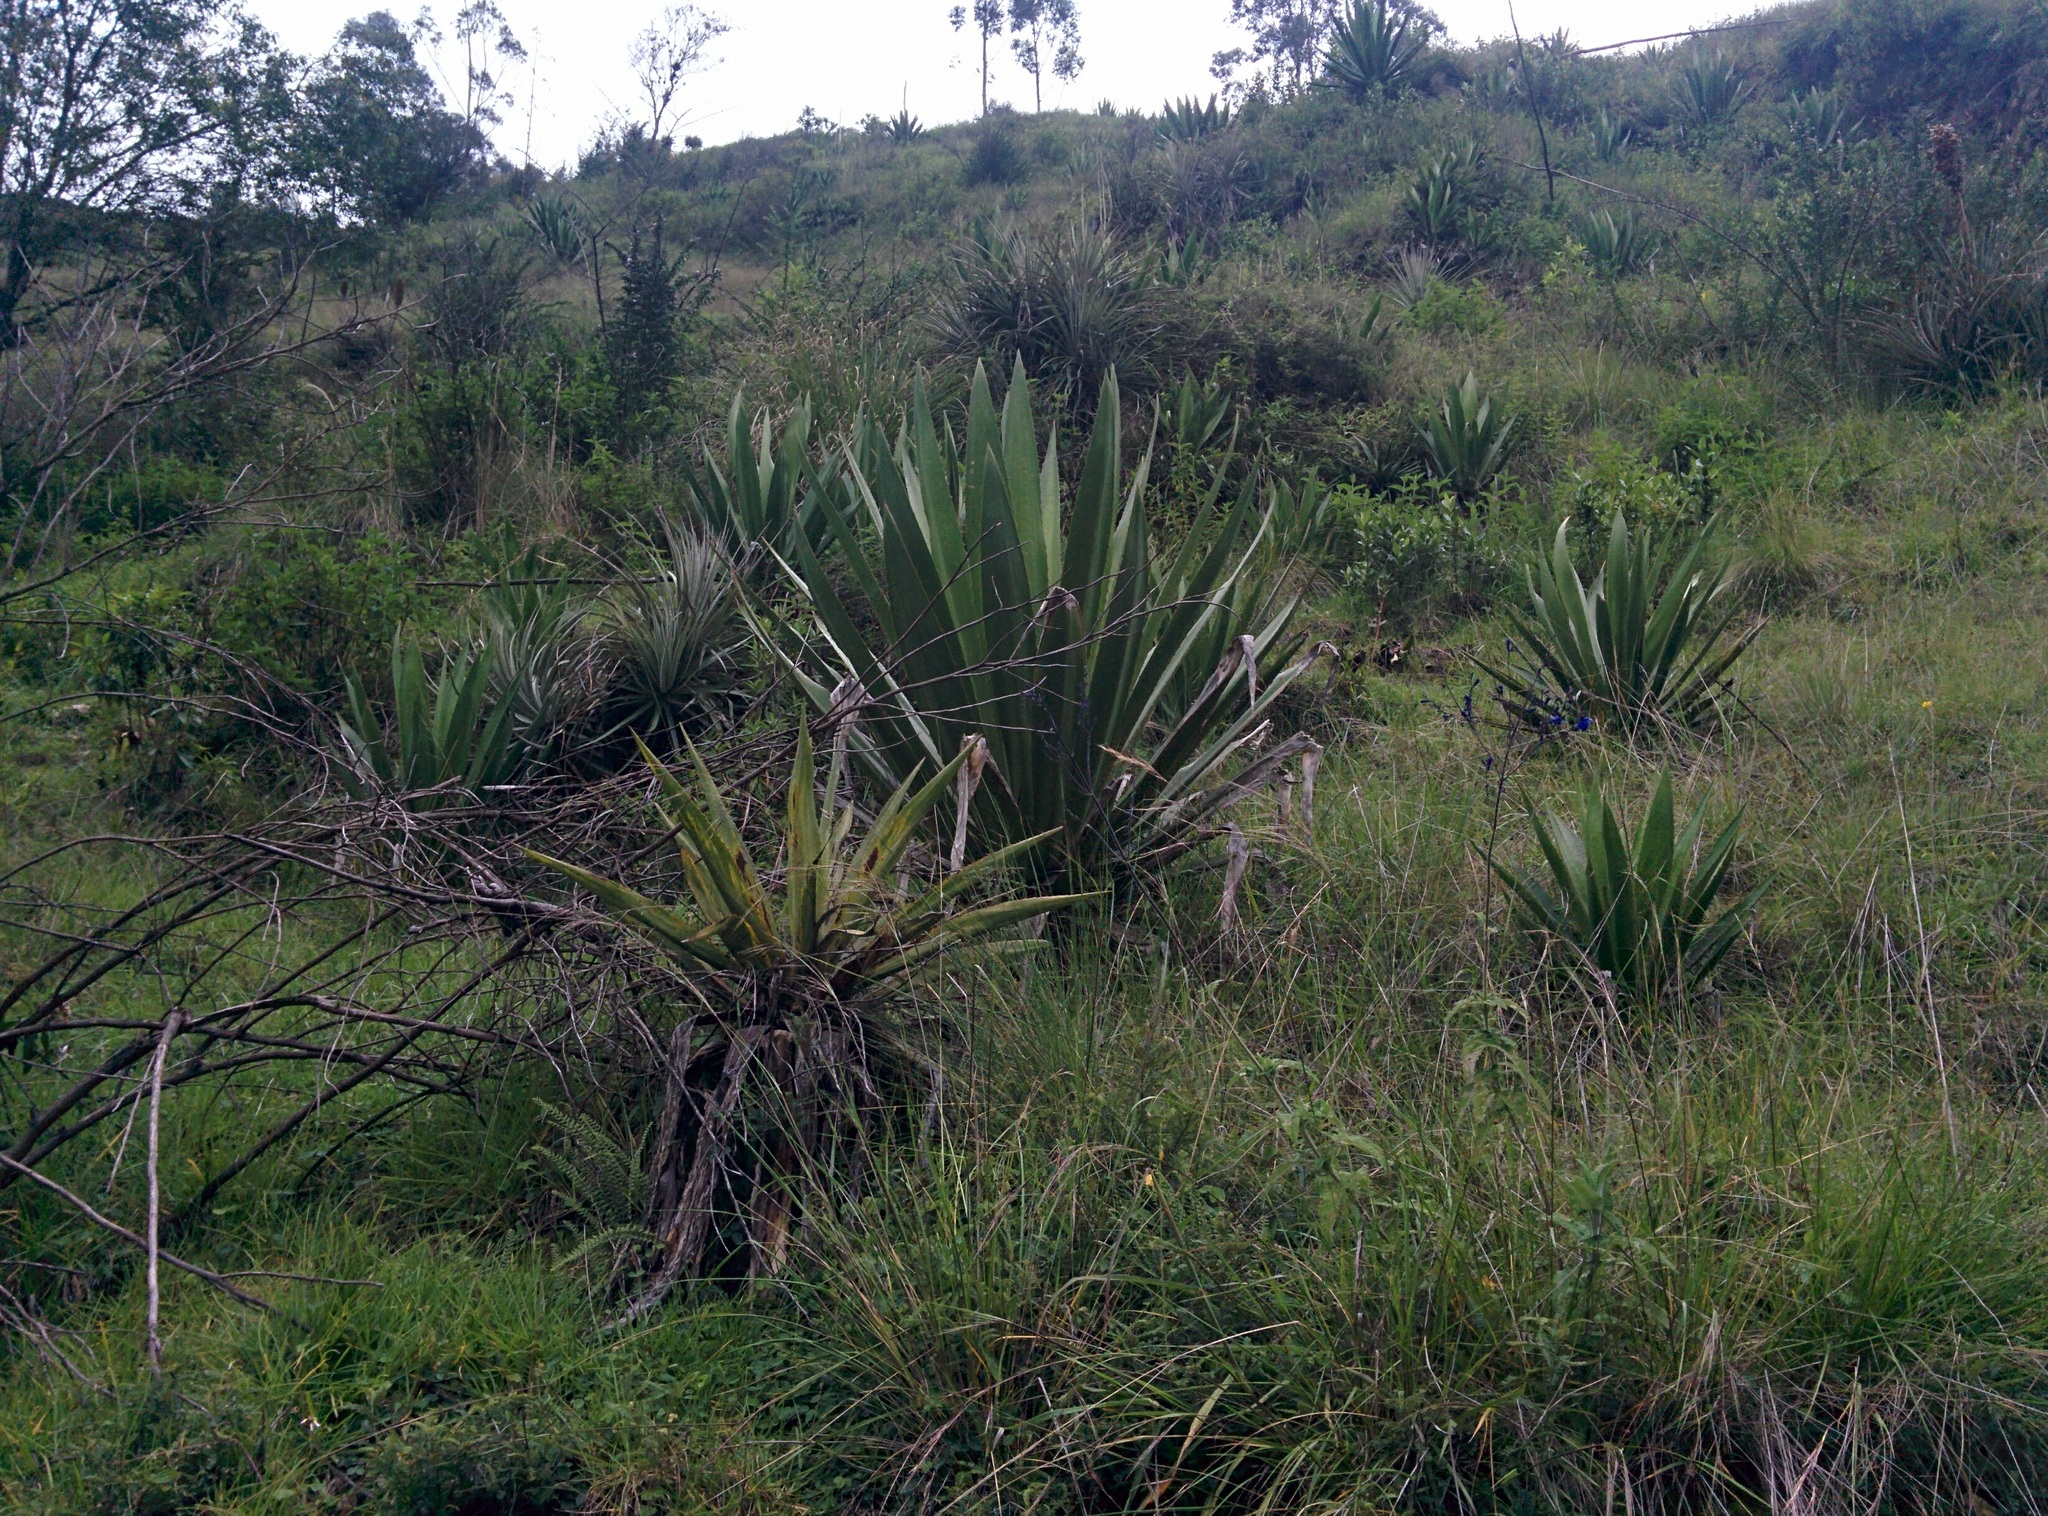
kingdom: Plantae
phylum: Tracheophyta
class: Liliopsida
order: Asparagales
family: Asparagaceae
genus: Furcraea
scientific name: Furcraea andina
